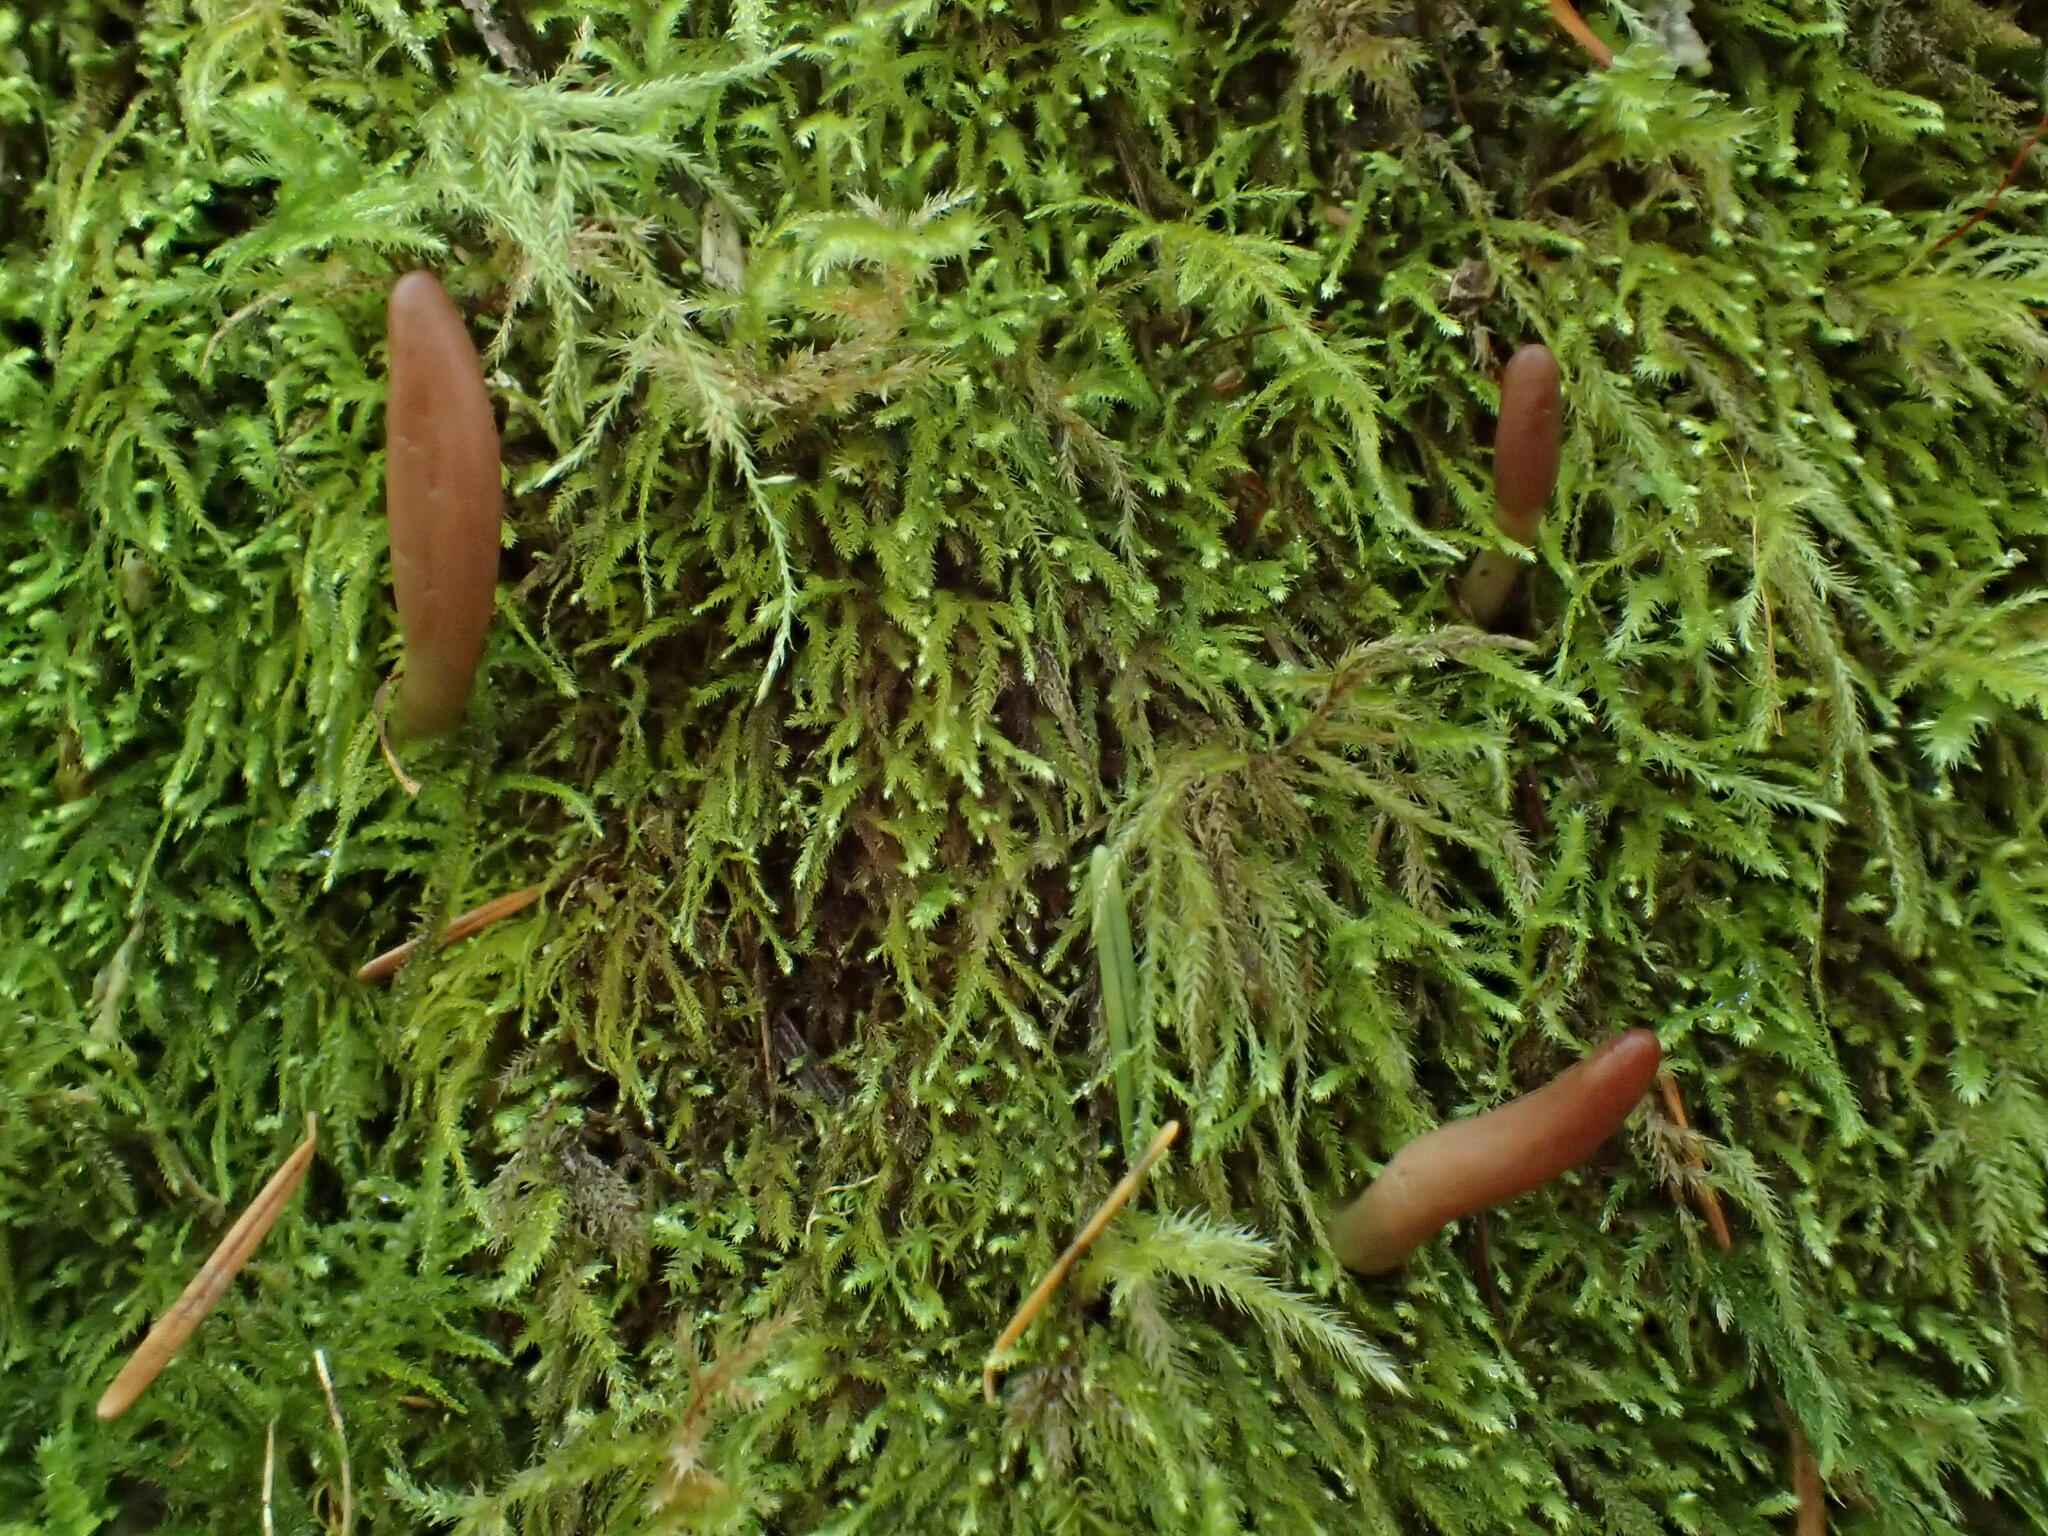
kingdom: Fungi
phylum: Ascomycota
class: Leotiomycetes
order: Leotiales
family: Leotiaceae
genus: Microglossum
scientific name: Microglossum
